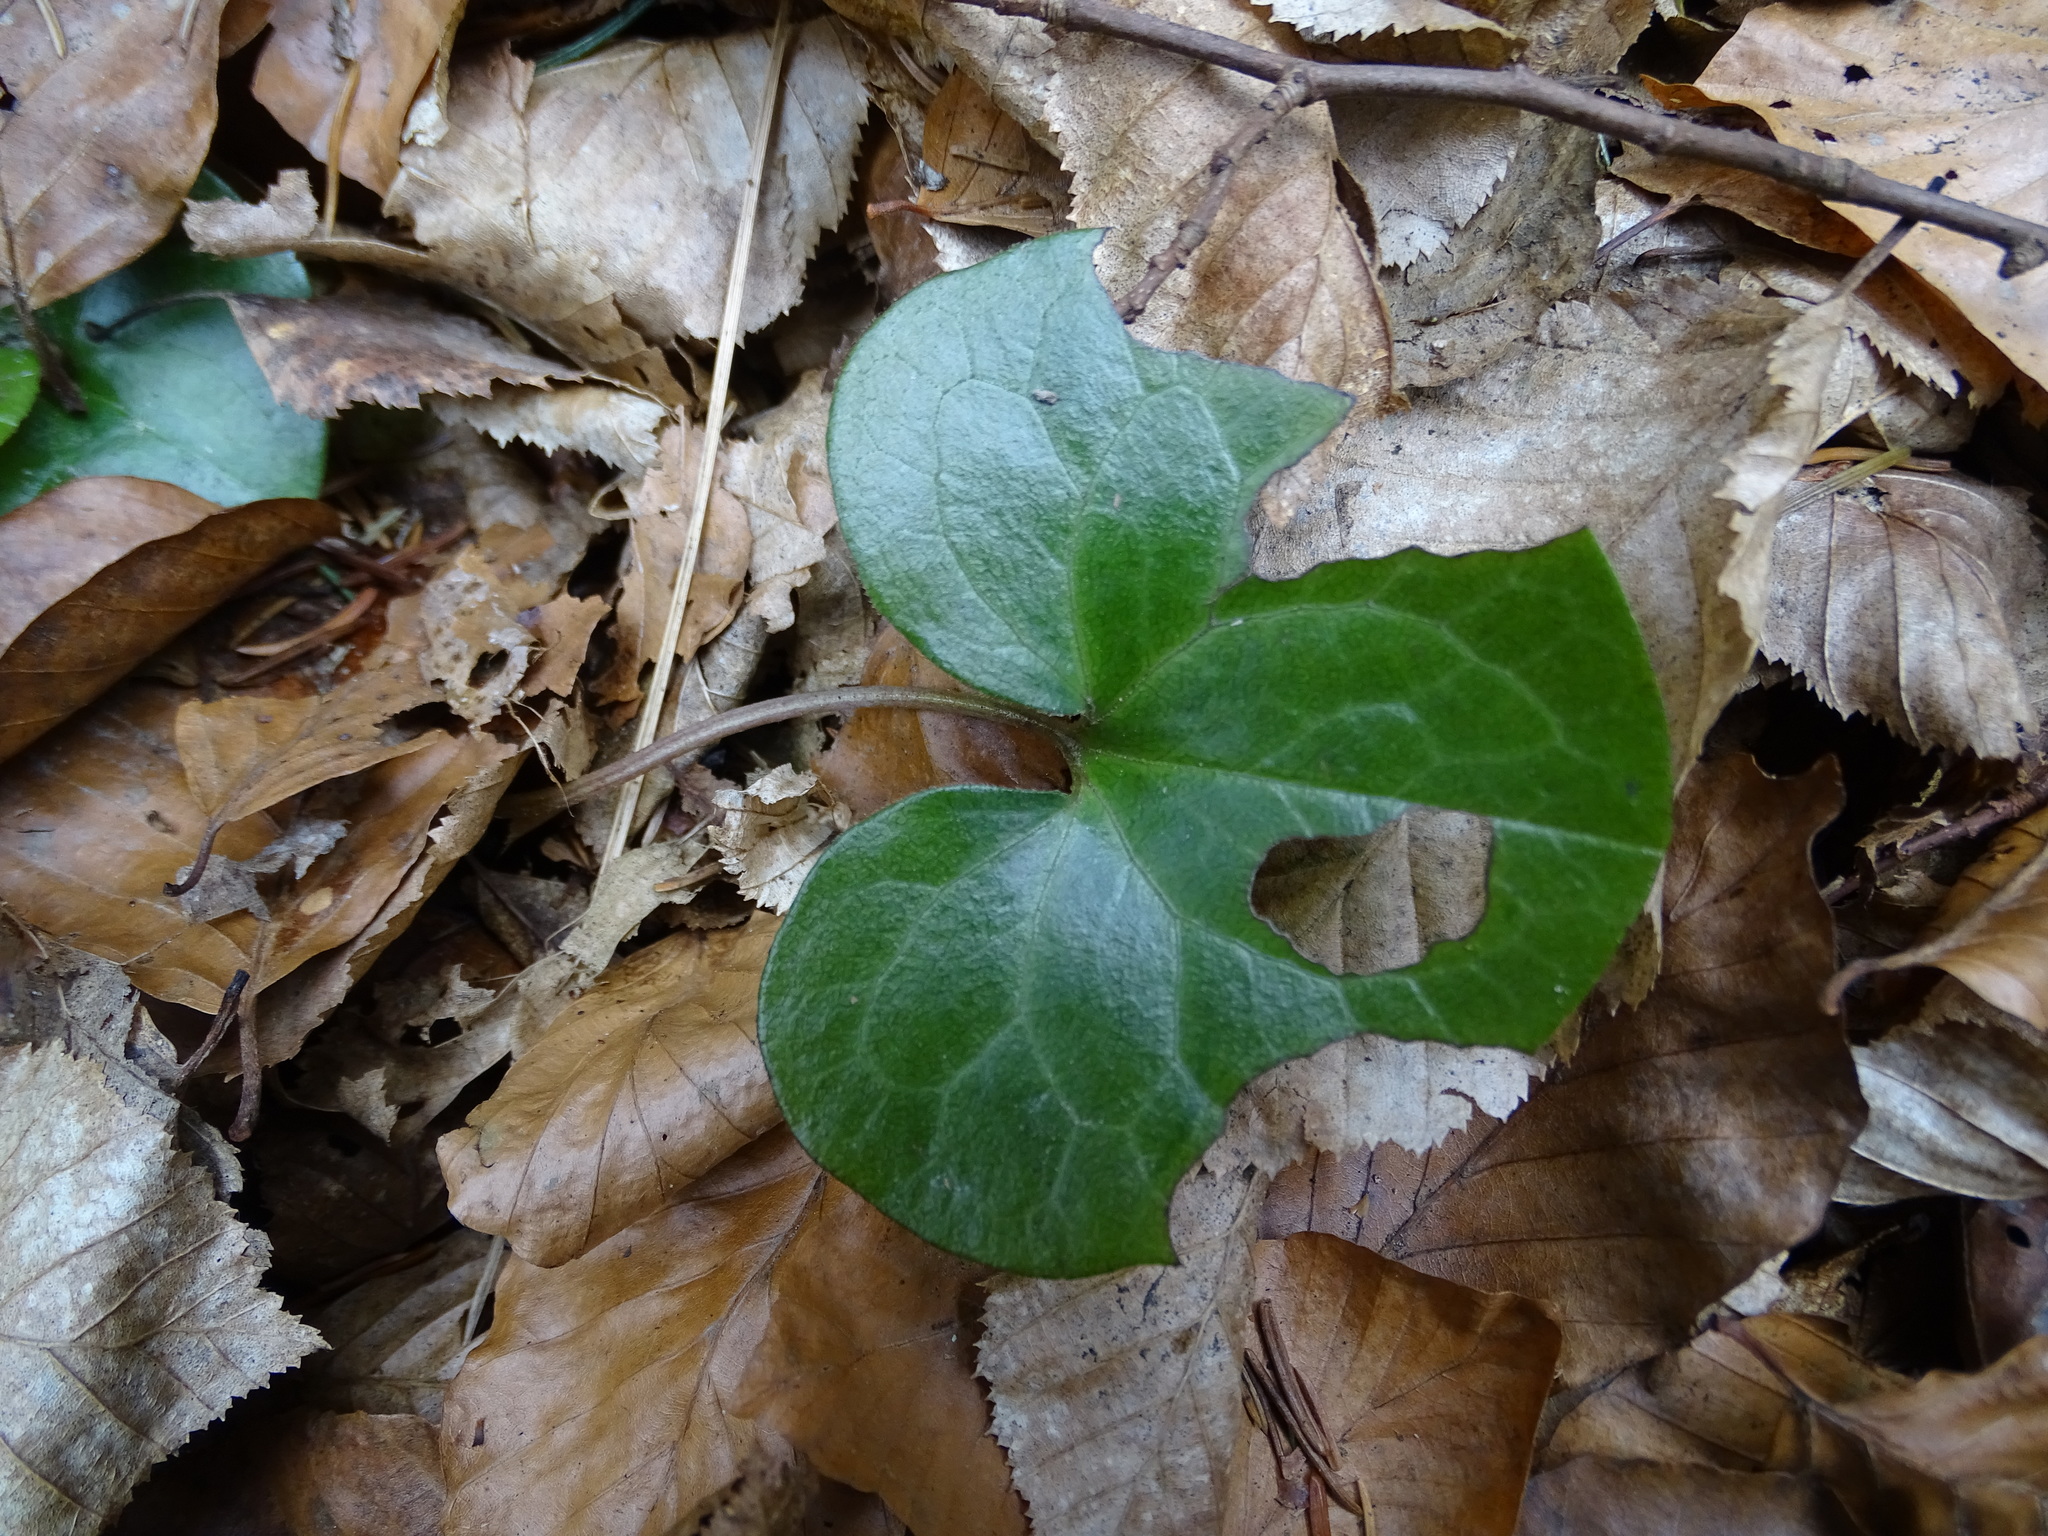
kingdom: Plantae
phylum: Tracheophyta
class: Magnoliopsida
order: Piperales
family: Aristolochiaceae
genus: Asarum
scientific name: Asarum europaeum
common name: Asarabacca
